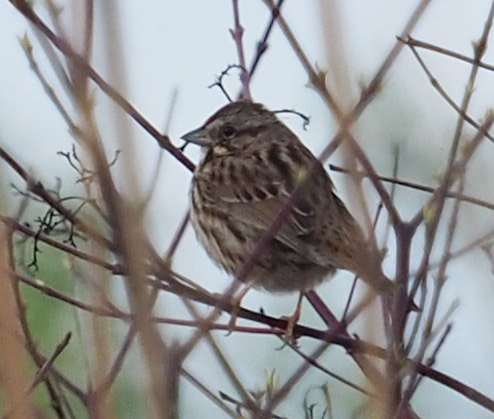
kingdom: Animalia
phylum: Chordata
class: Aves
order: Passeriformes
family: Passerellidae
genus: Melospiza
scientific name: Melospiza melodia
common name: Song sparrow
